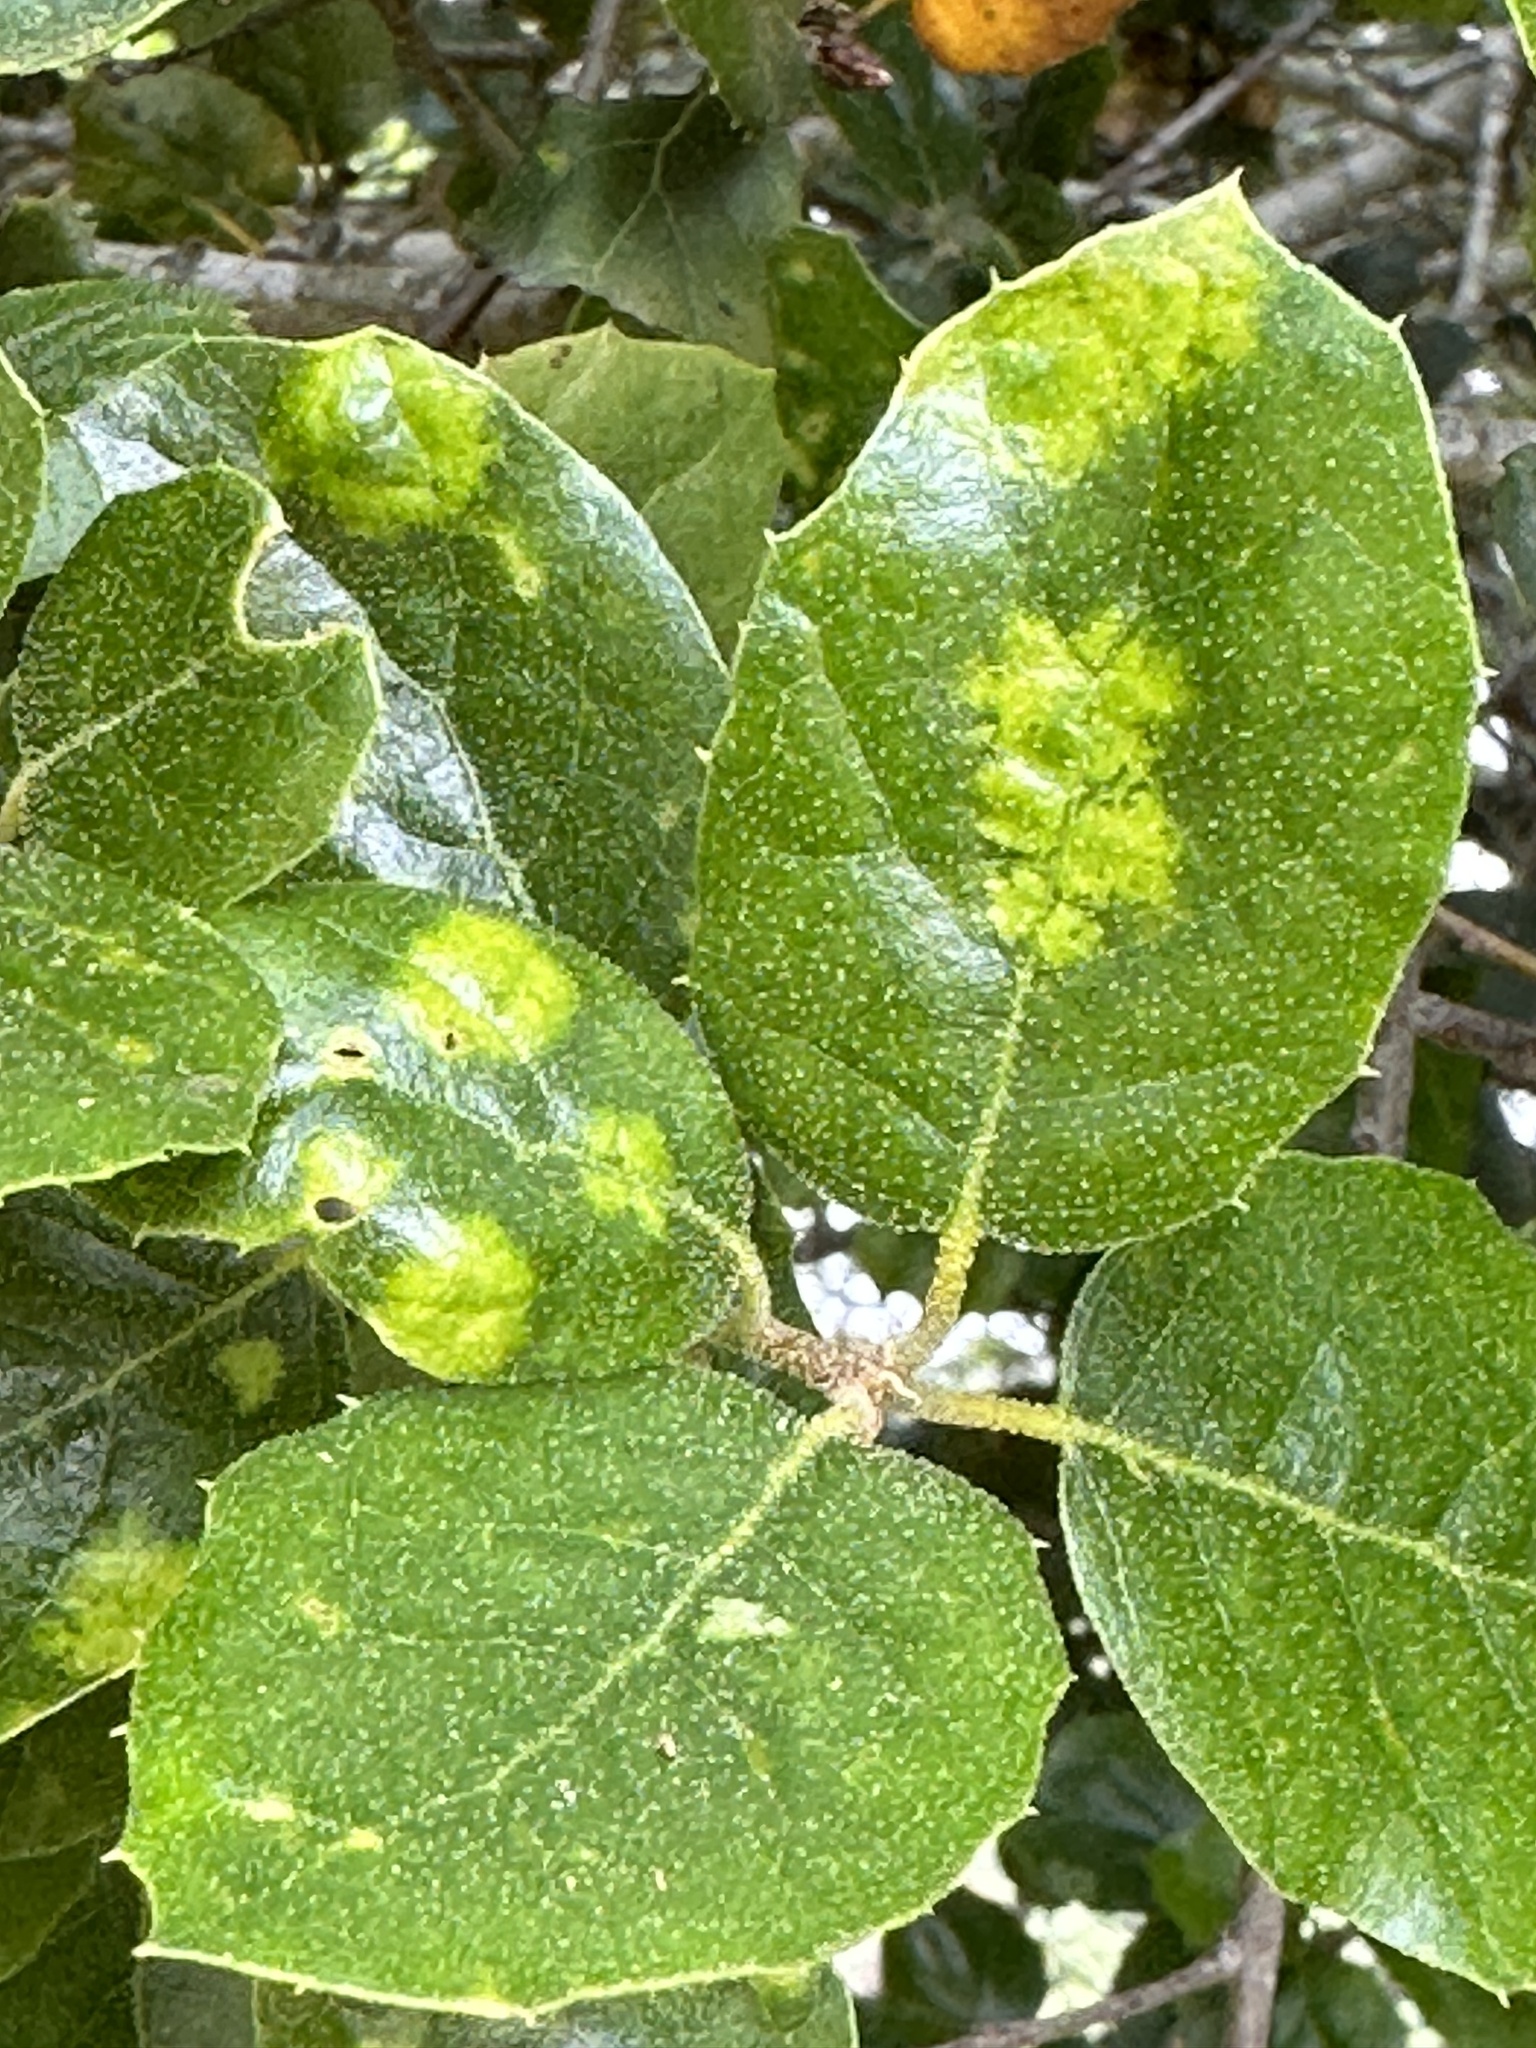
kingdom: Plantae
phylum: Tracheophyta
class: Magnoliopsida
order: Fagales
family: Fagaceae
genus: Quercus
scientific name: Quercus agrifolia
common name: California live oak
